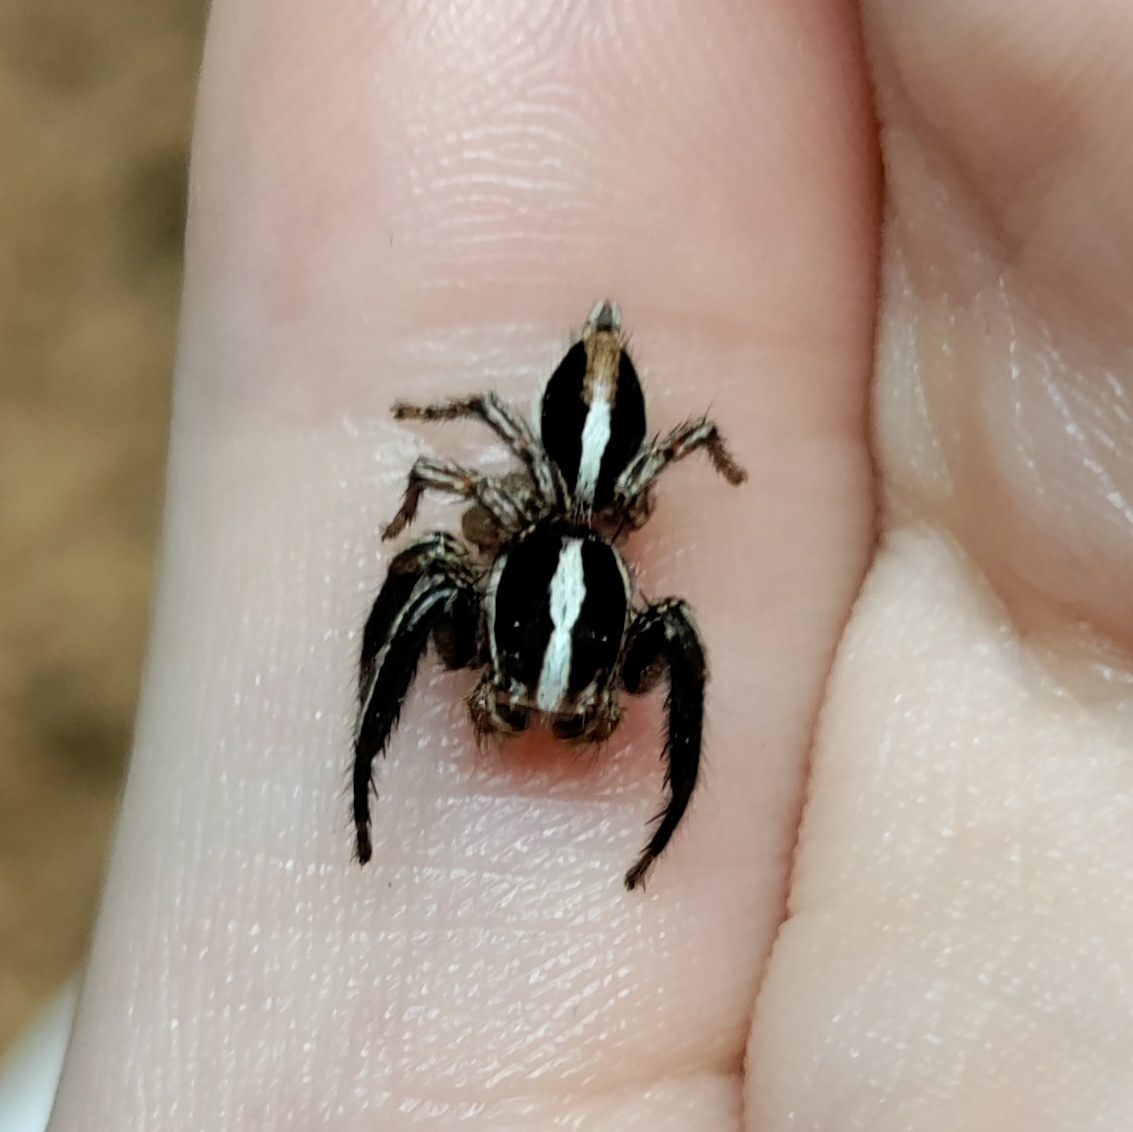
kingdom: Animalia
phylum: Arthropoda
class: Arachnida
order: Araneae
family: Salticidae
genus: Plexippus
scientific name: Plexippus paykulli
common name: Pantropical jumper
